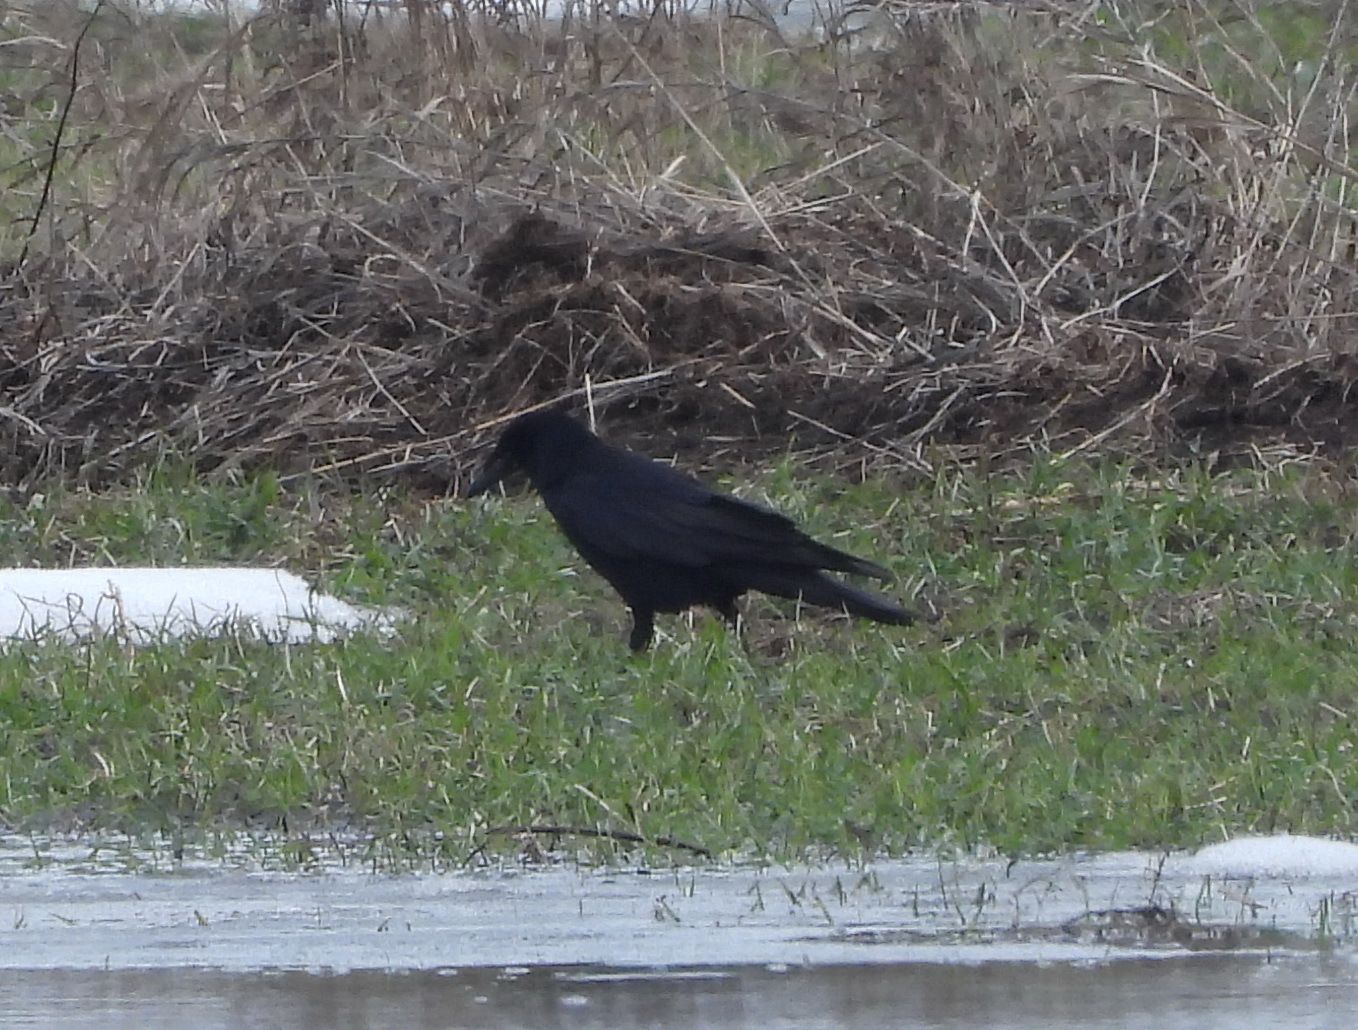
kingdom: Animalia
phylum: Chordata
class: Aves
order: Passeriformes
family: Corvidae
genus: Corvus
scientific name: Corvus frugilegus
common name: Rook
